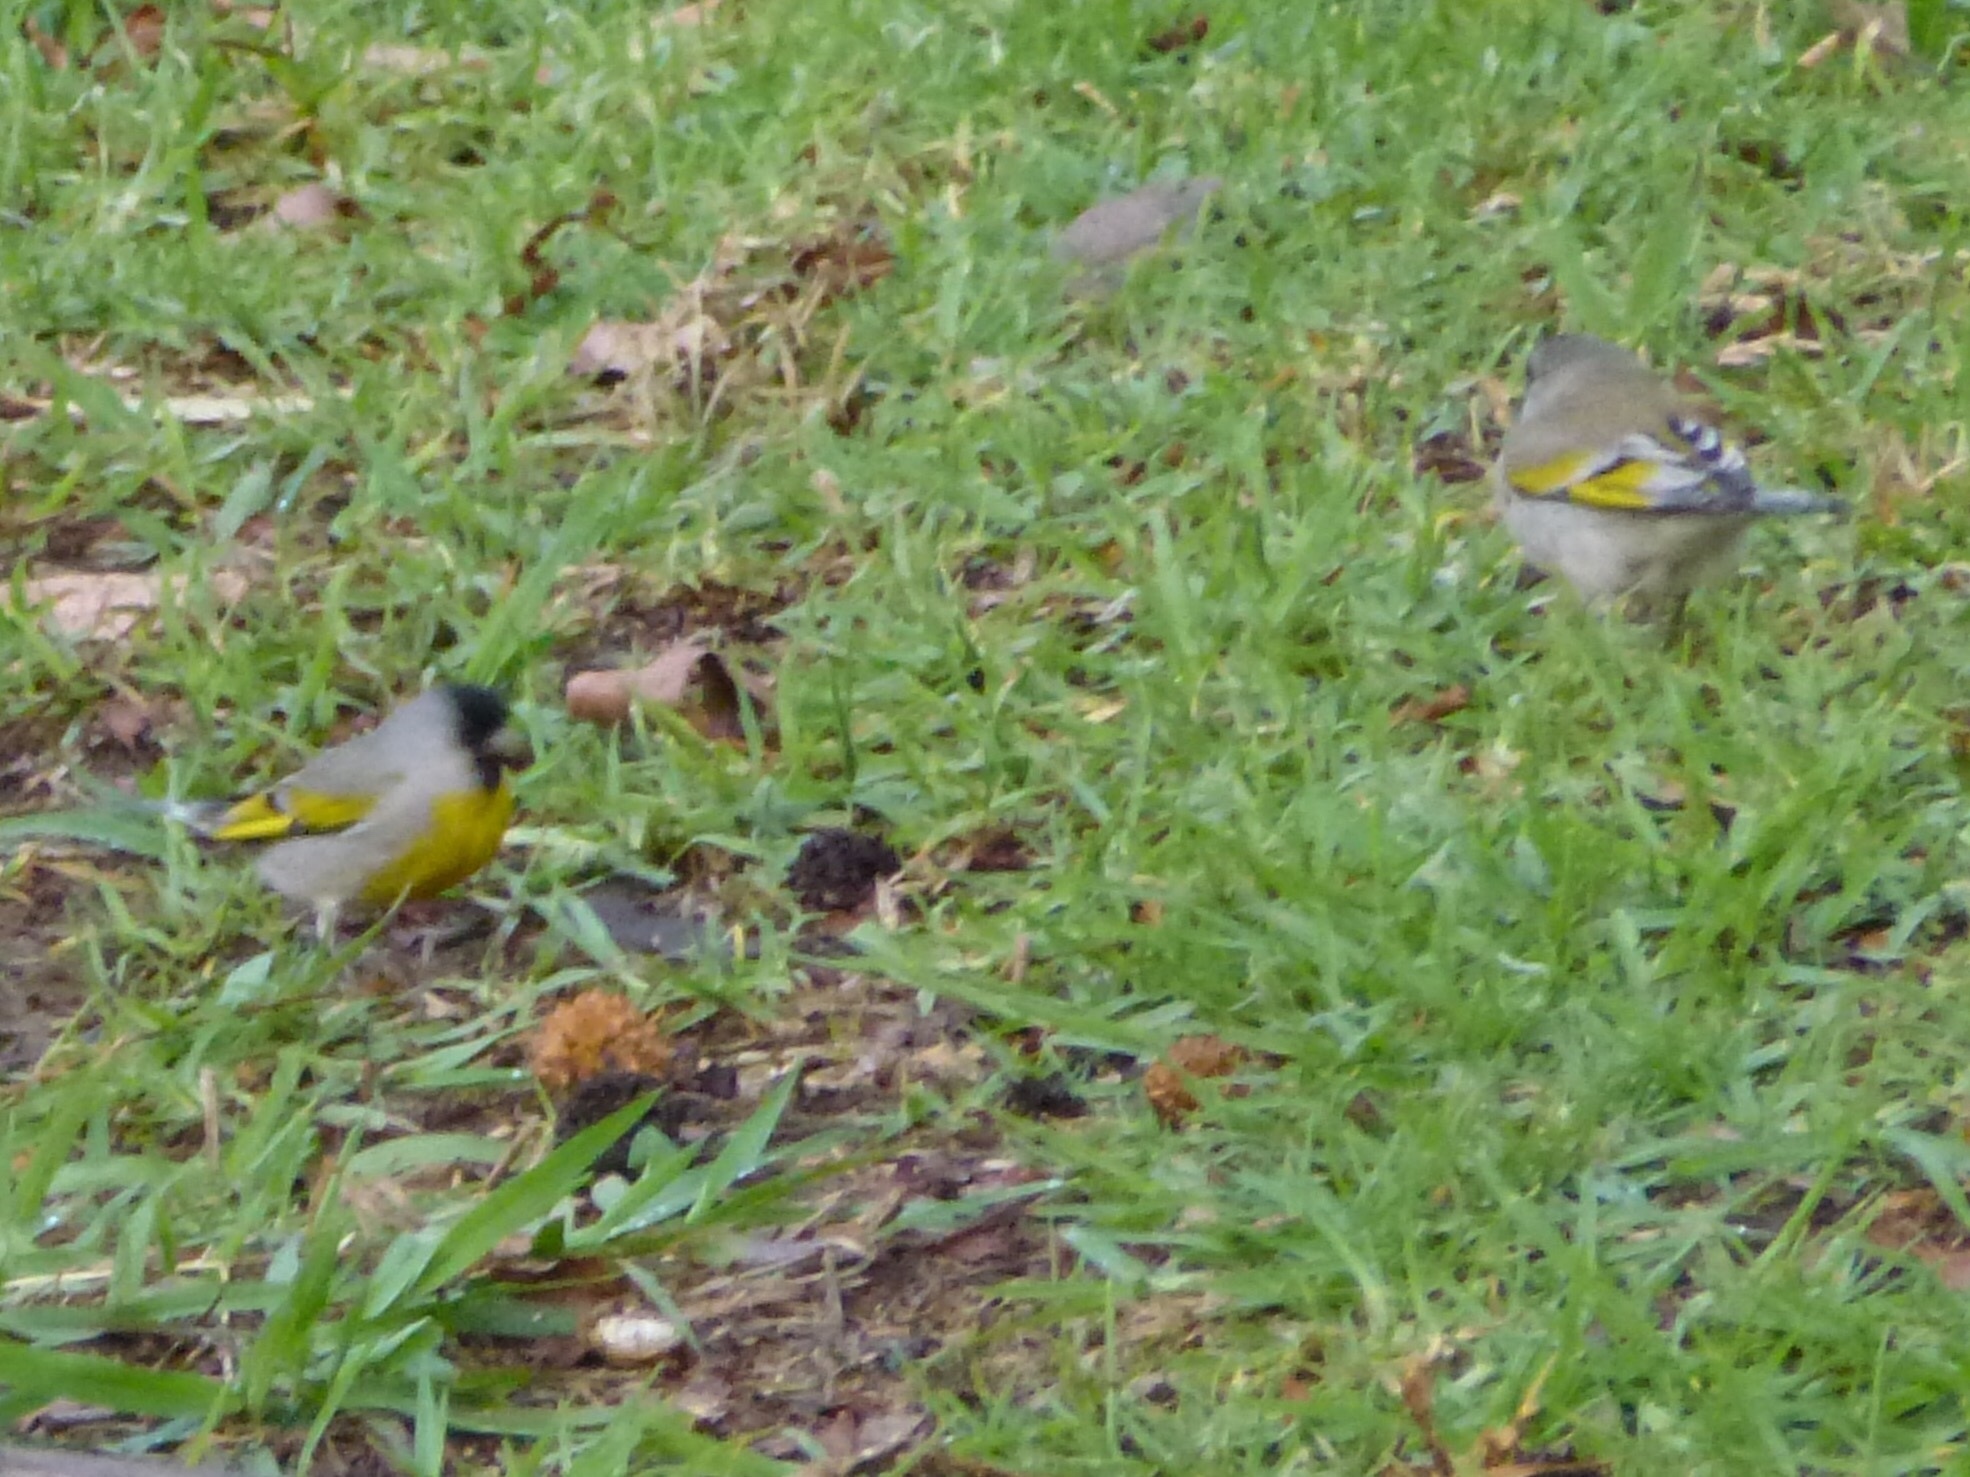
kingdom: Animalia
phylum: Chordata
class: Aves
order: Passeriformes
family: Fringillidae
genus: Spinus
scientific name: Spinus lawrencei
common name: Lawrence's goldfinch
